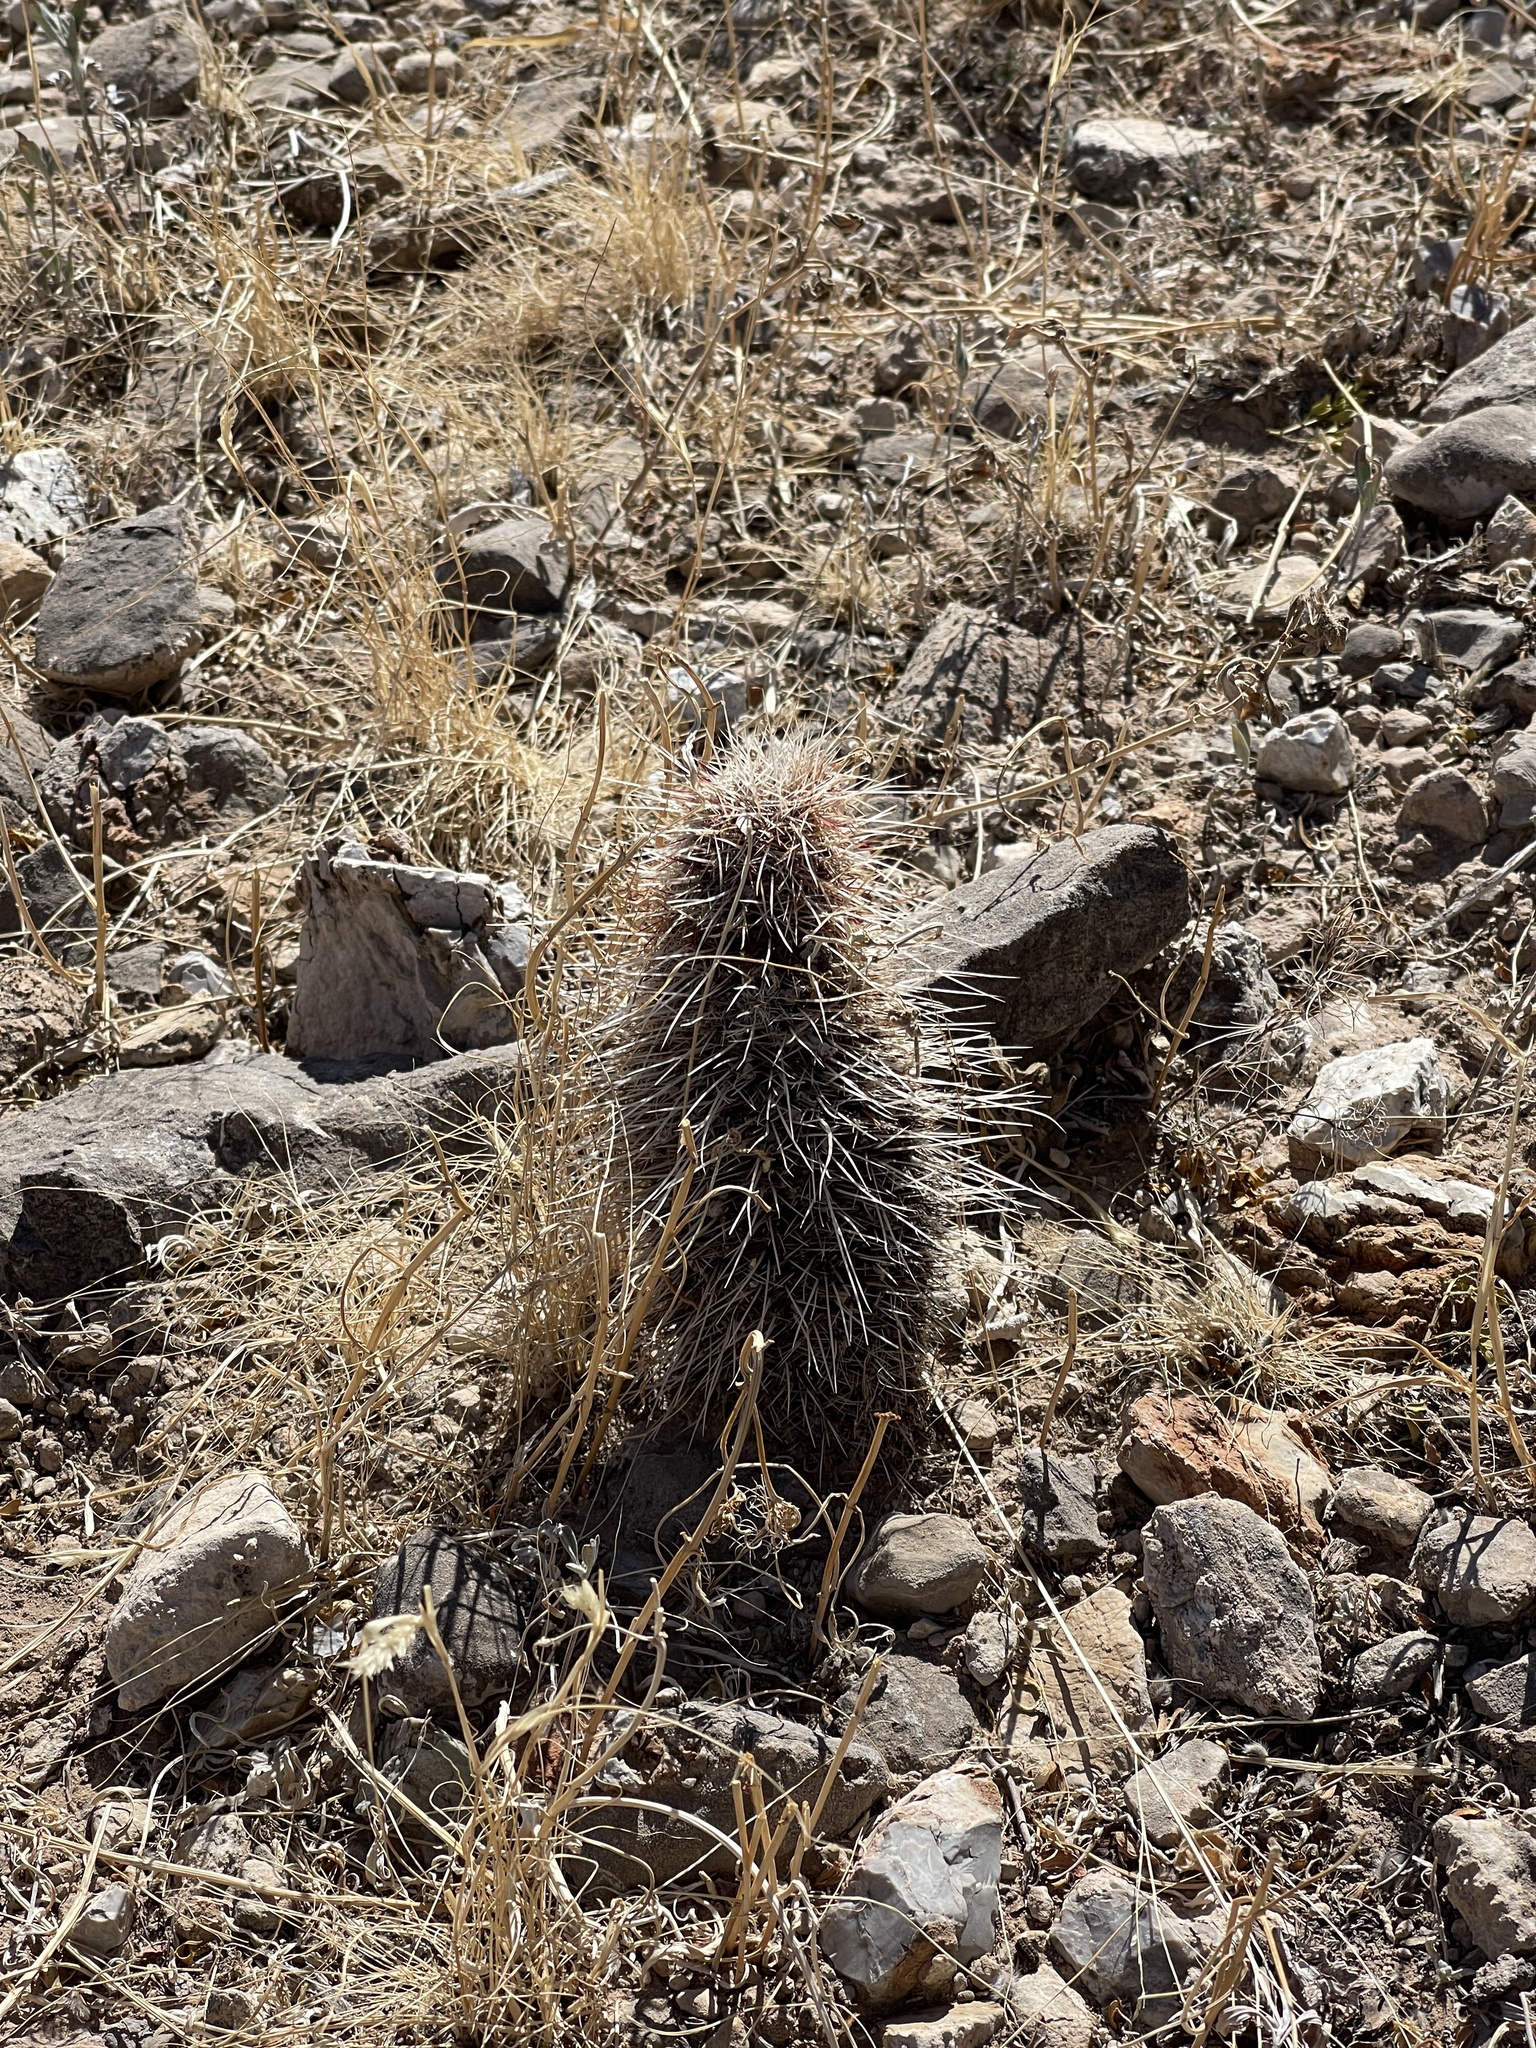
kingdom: Plantae
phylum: Tracheophyta
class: Magnoliopsida
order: Caryophyllales
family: Cactaceae
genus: Echinocereus
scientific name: Echinocereus viridiflorus
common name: Nylon hedgehog cactus
